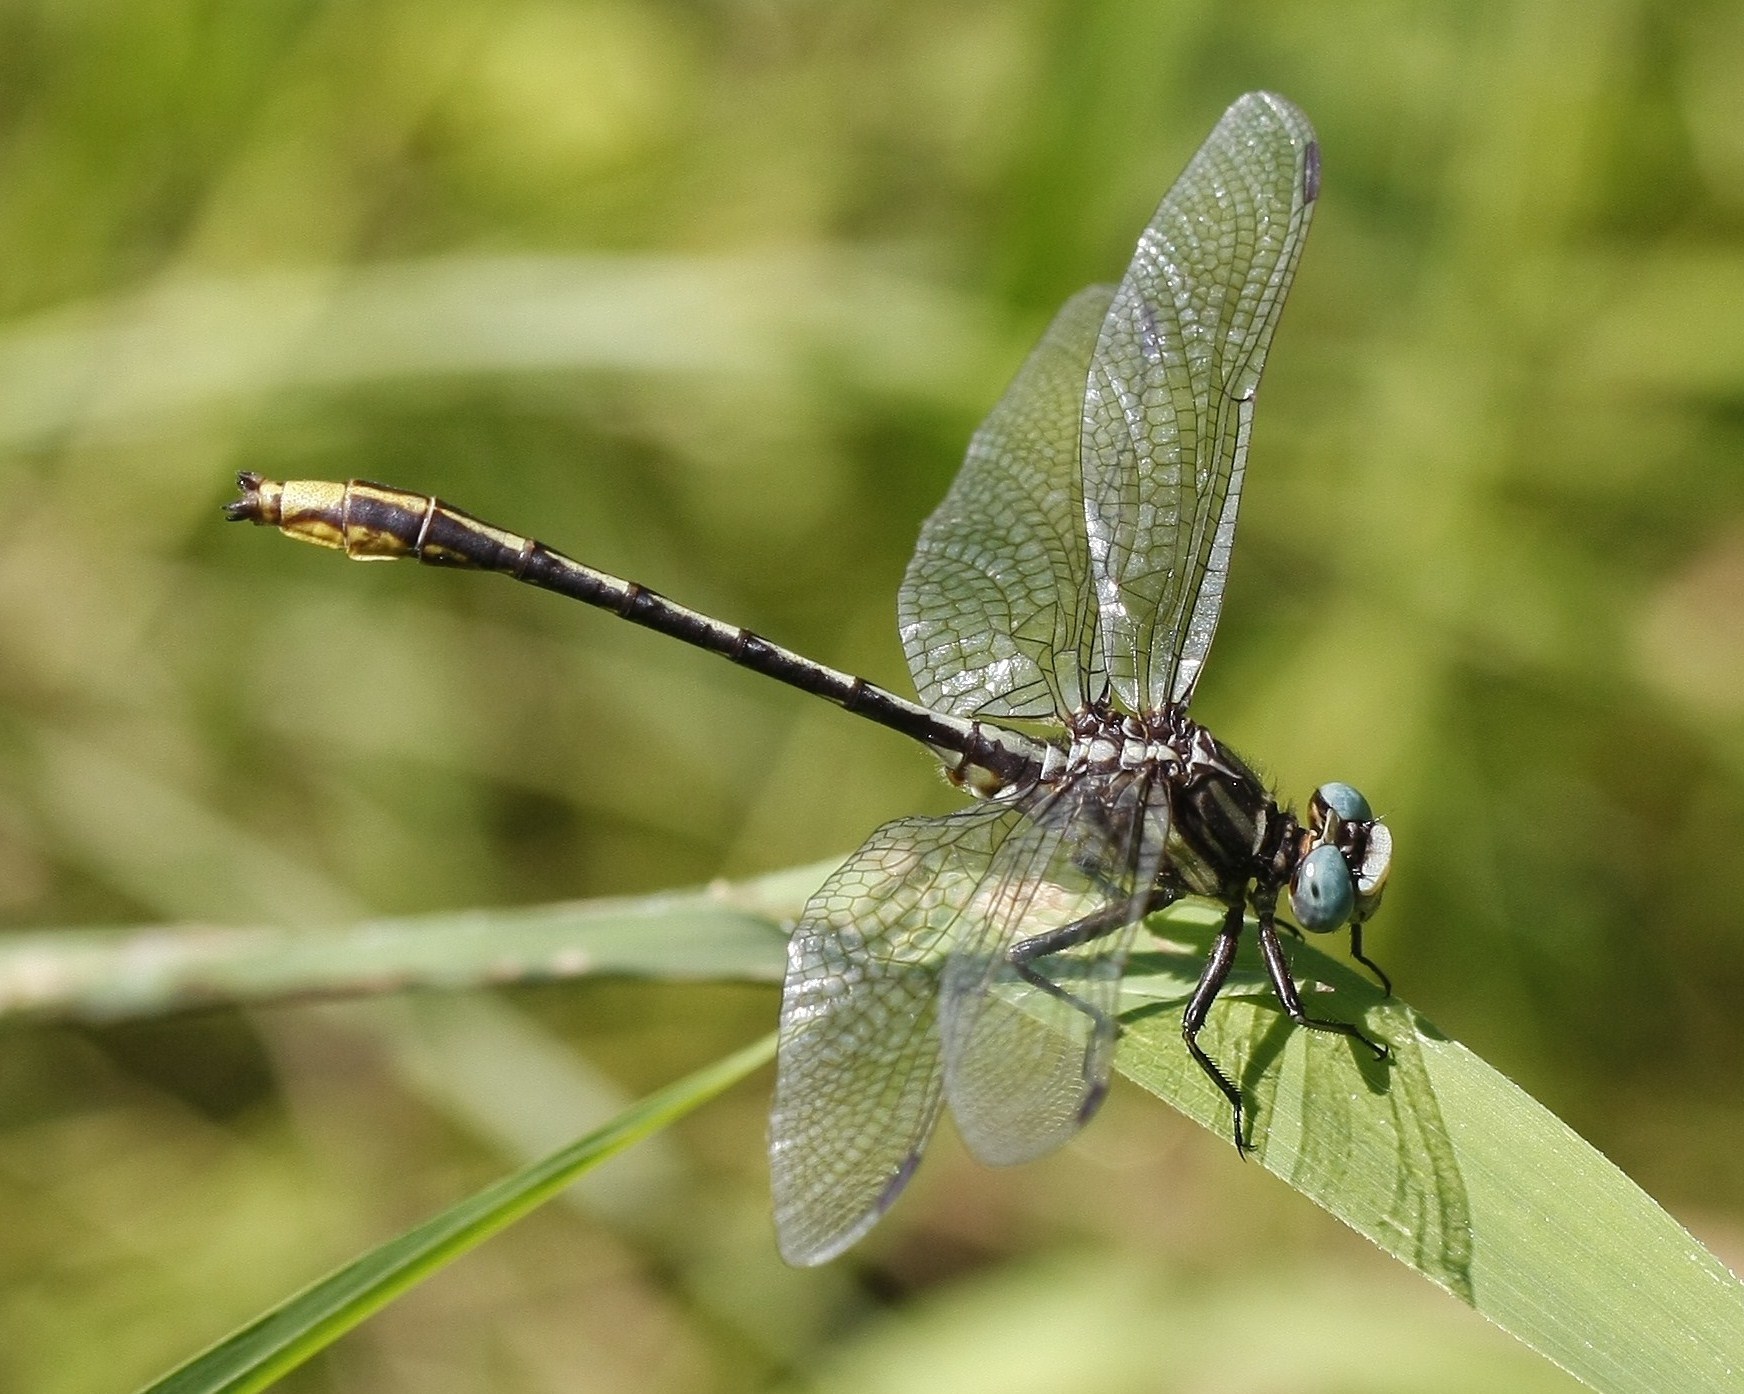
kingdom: Animalia
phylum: Arthropoda
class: Insecta
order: Odonata
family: Gomphidae
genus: Phanogomphus
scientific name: Phanogomphus exilis
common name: Lancet clubtail
